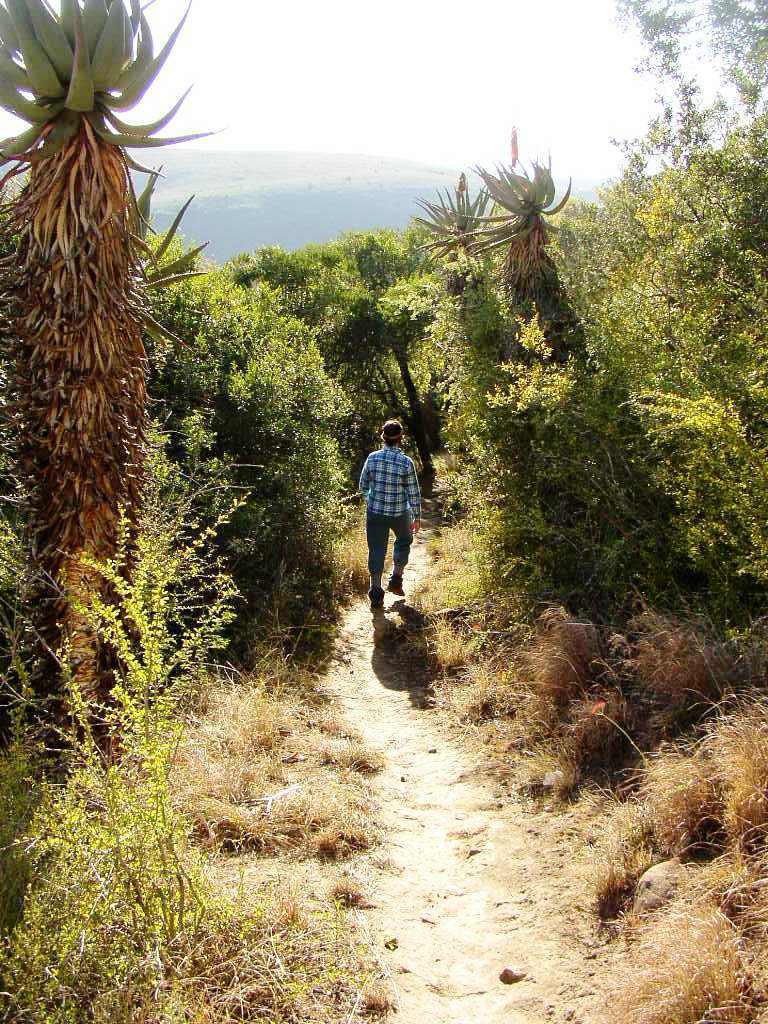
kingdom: Plantae
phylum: Tracheophyta
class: Liliopsida
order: Asparagales
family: Asphodelaceae
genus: Aloe
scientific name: Aloe ferox
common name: Bitter aloe
